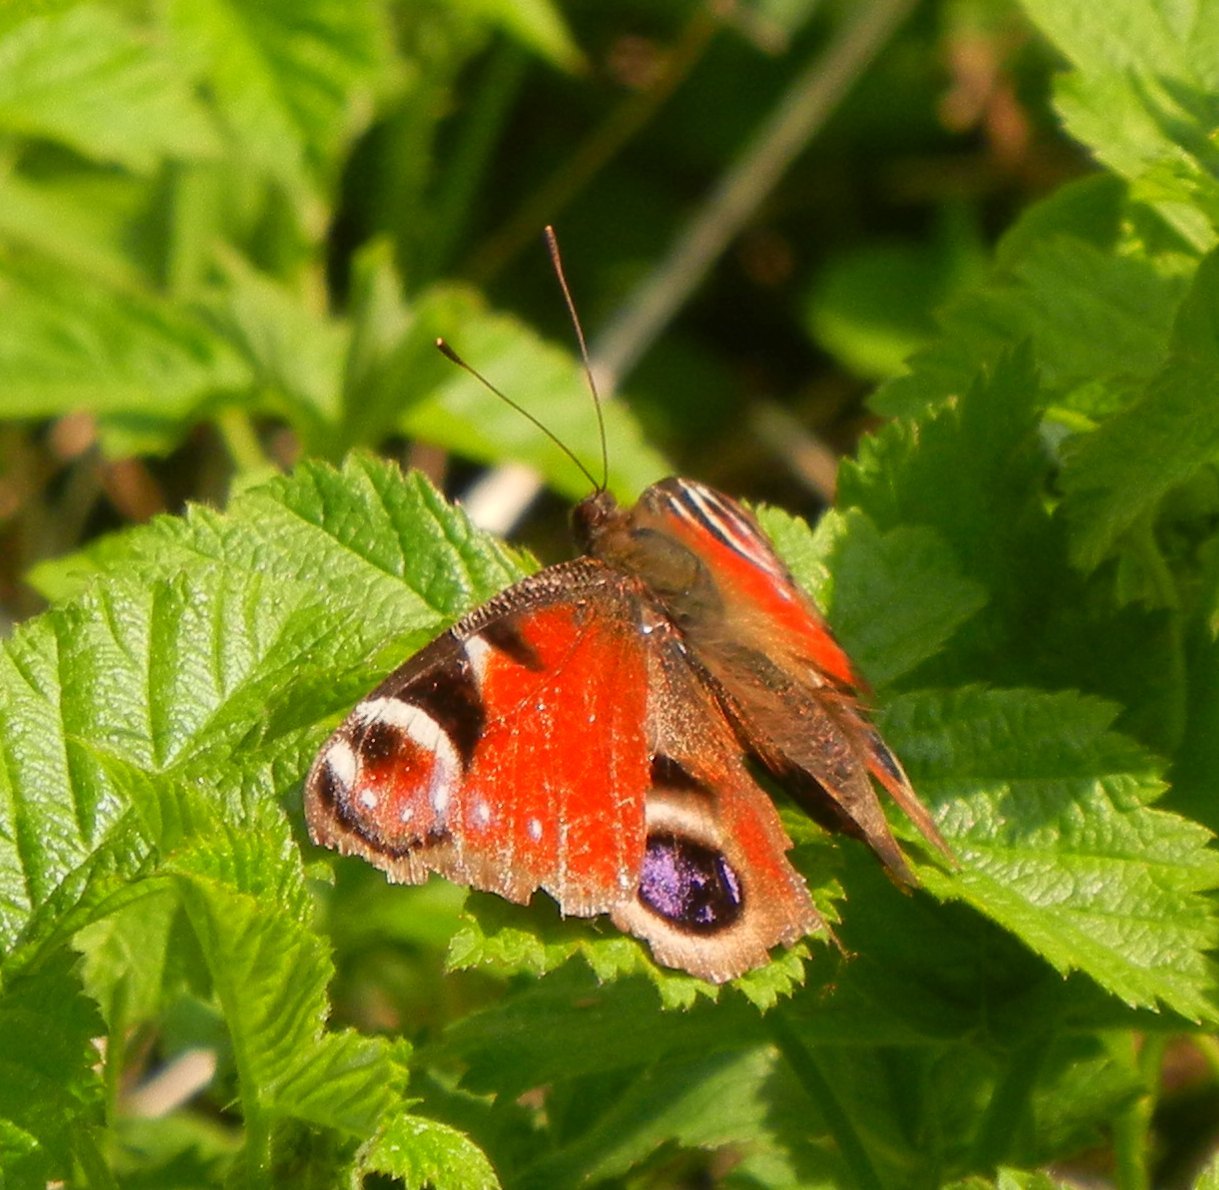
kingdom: Animalia
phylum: Arthropoda
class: Insecta
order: Lepidoptera
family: Nymphalidae
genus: Aglais
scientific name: Aglais io
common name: Peacock
